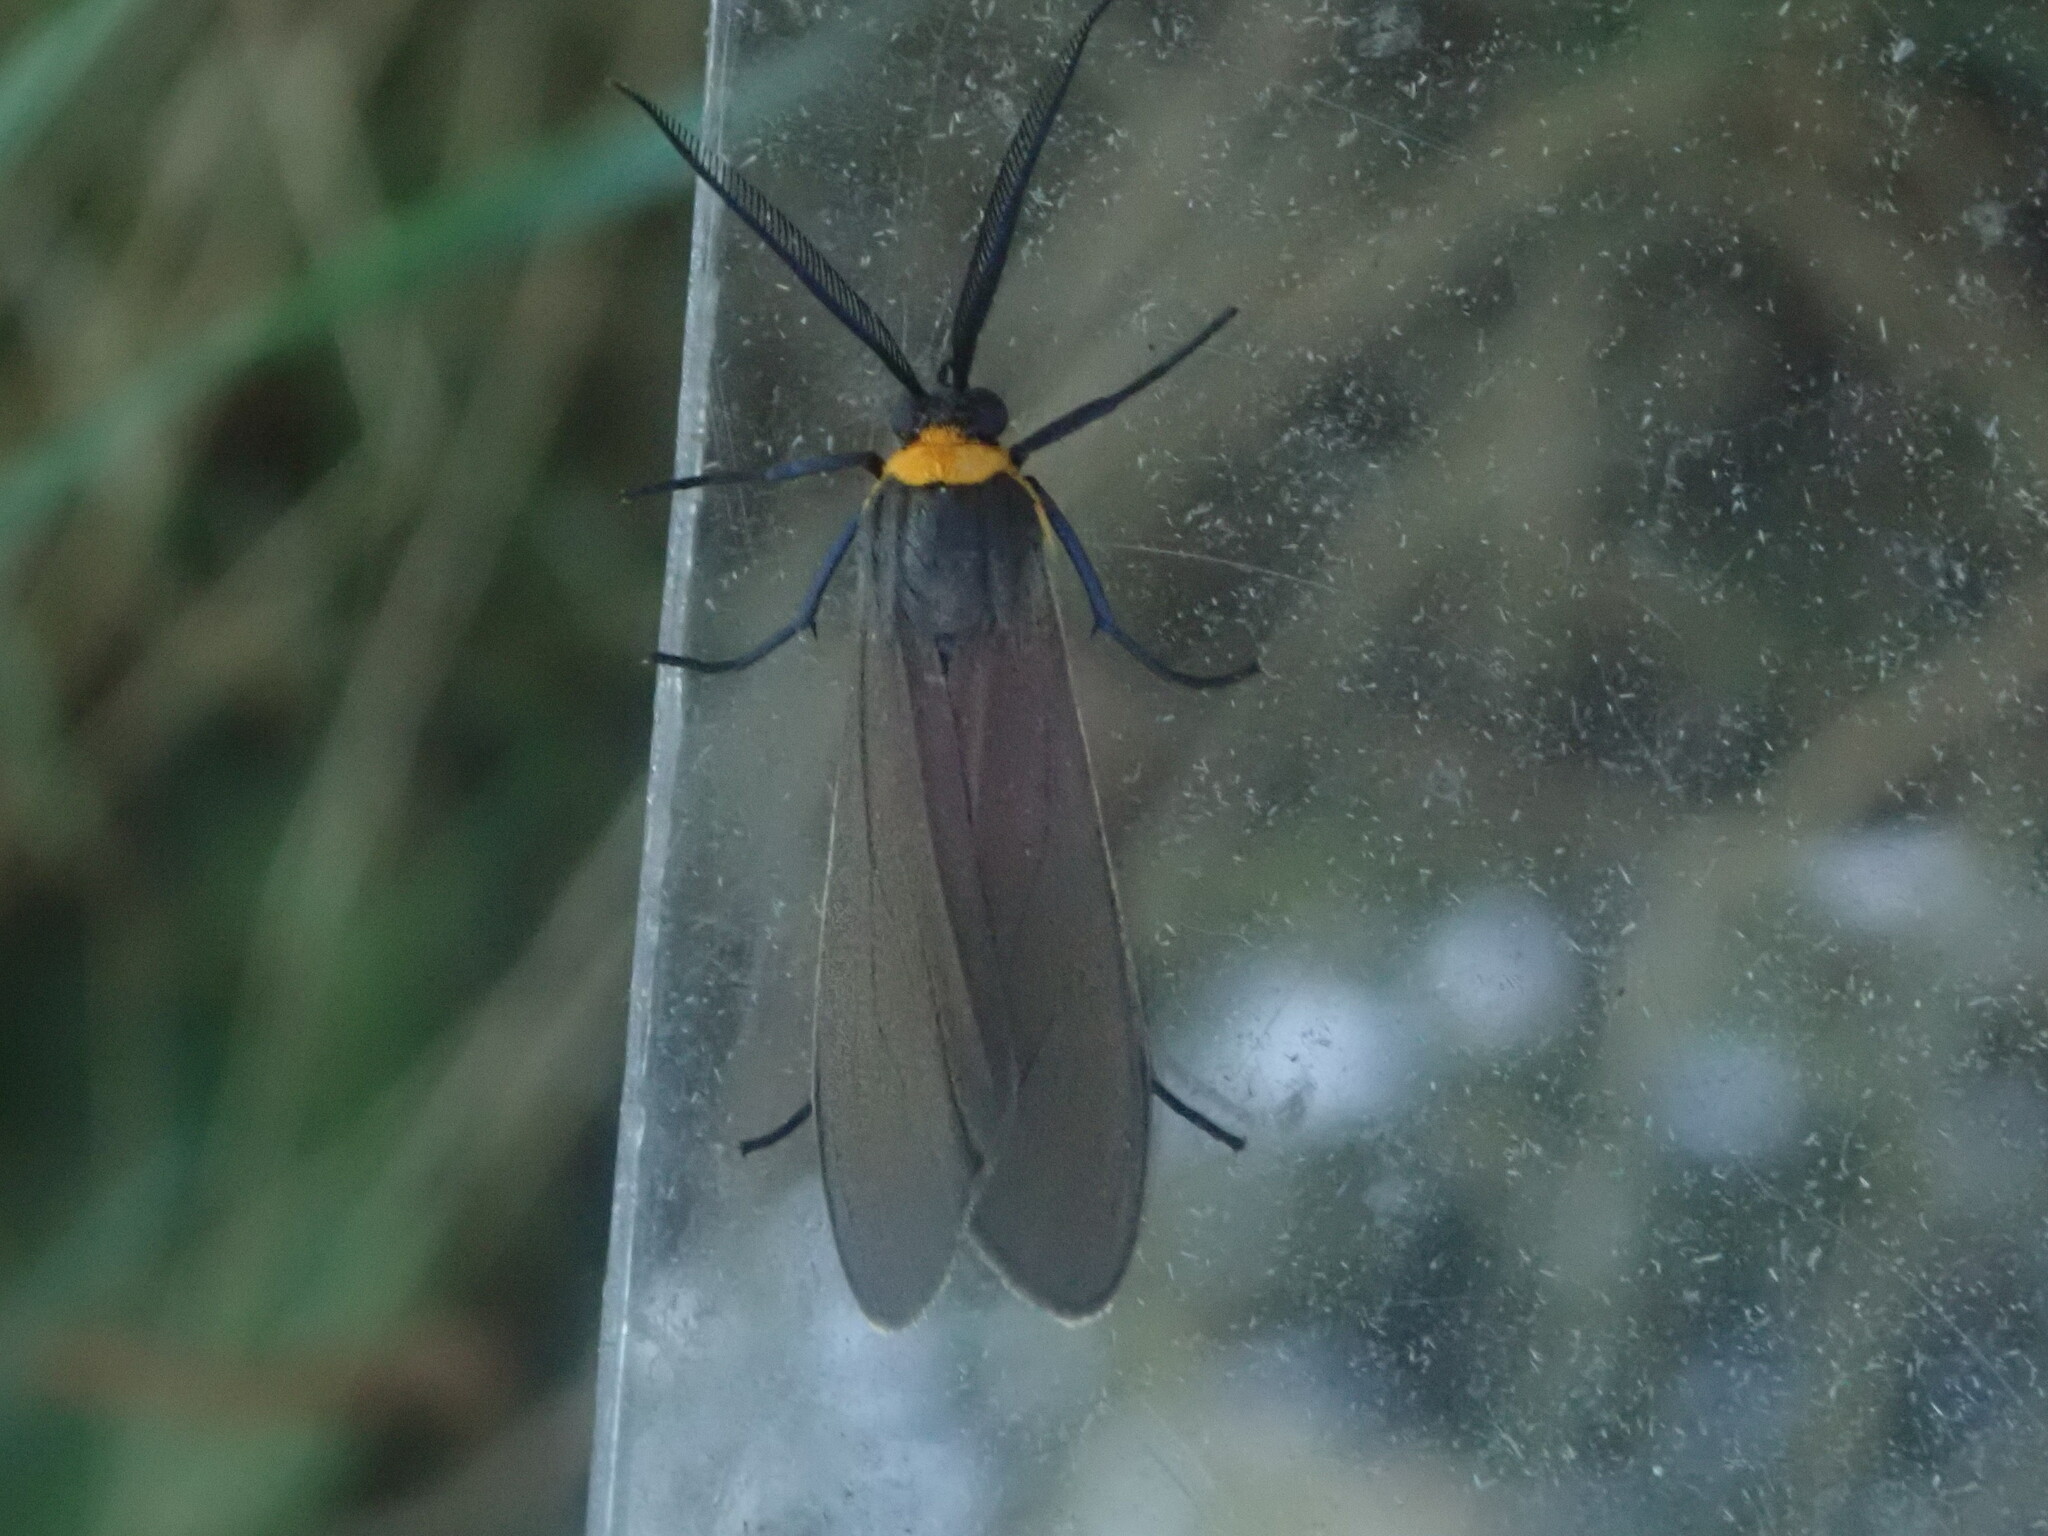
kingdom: Animalia
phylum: Arthropoda
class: Insecta
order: Lepidoptera
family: Erebidae
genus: Cisseps
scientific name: Cisseps fulvicollis
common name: Yellow-collared scape moth
